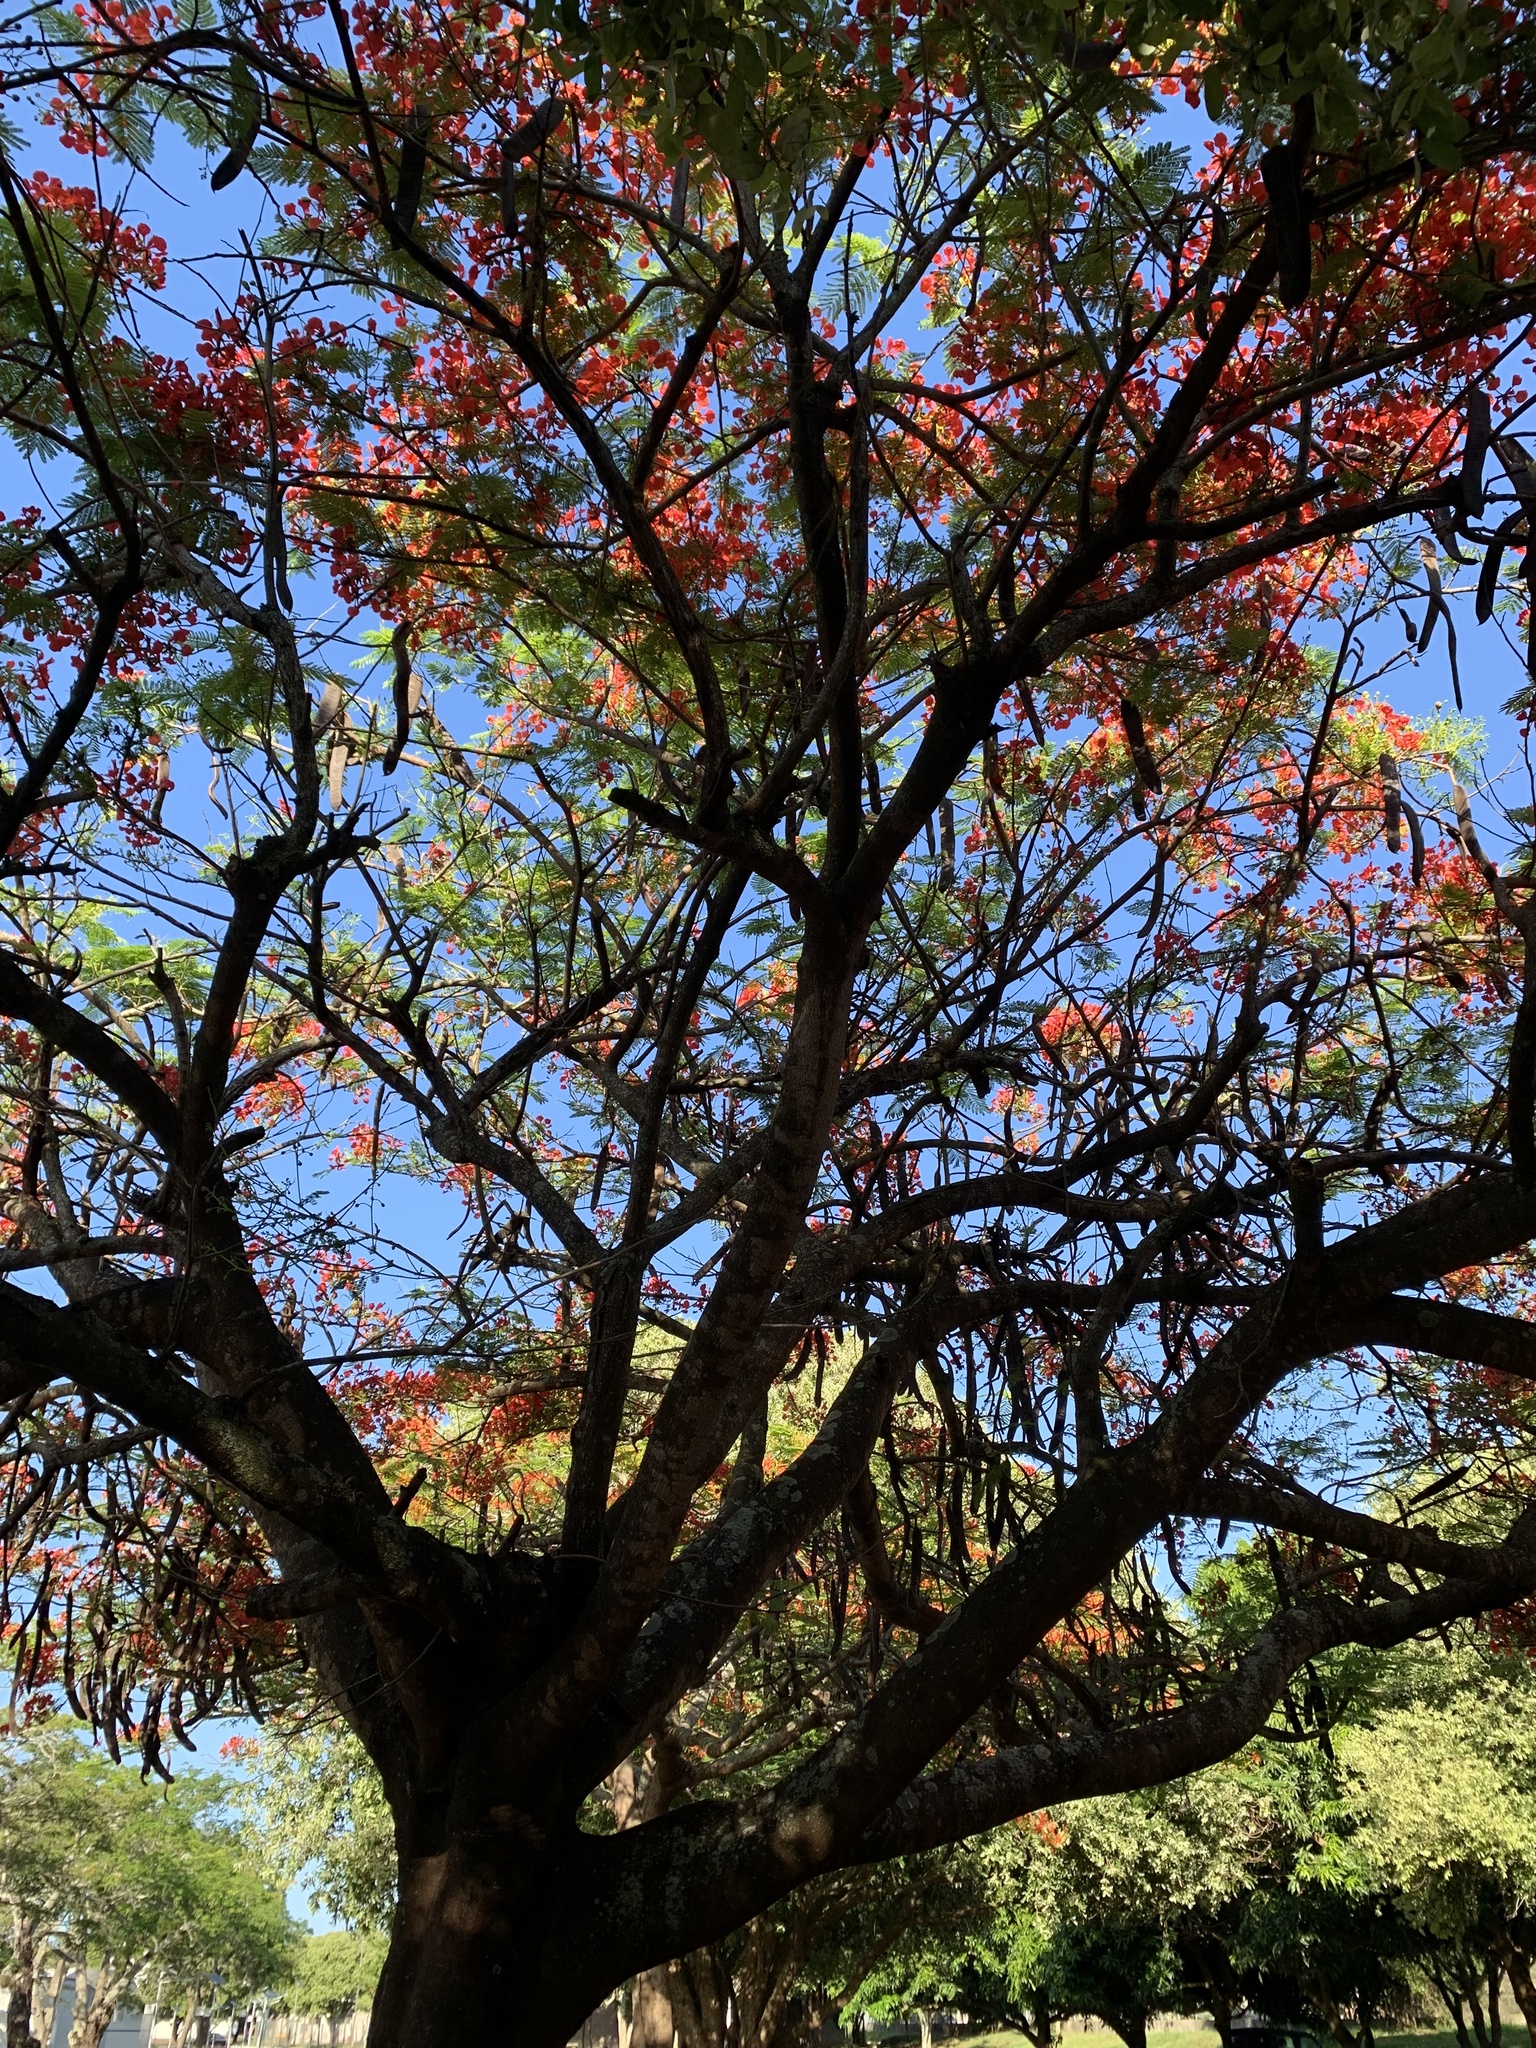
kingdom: Plantae
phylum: Tracheophyta
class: Magnoliopsida
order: Fabales
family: Fabaceae
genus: Delonix
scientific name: Delonix regia
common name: Royal poinciana
